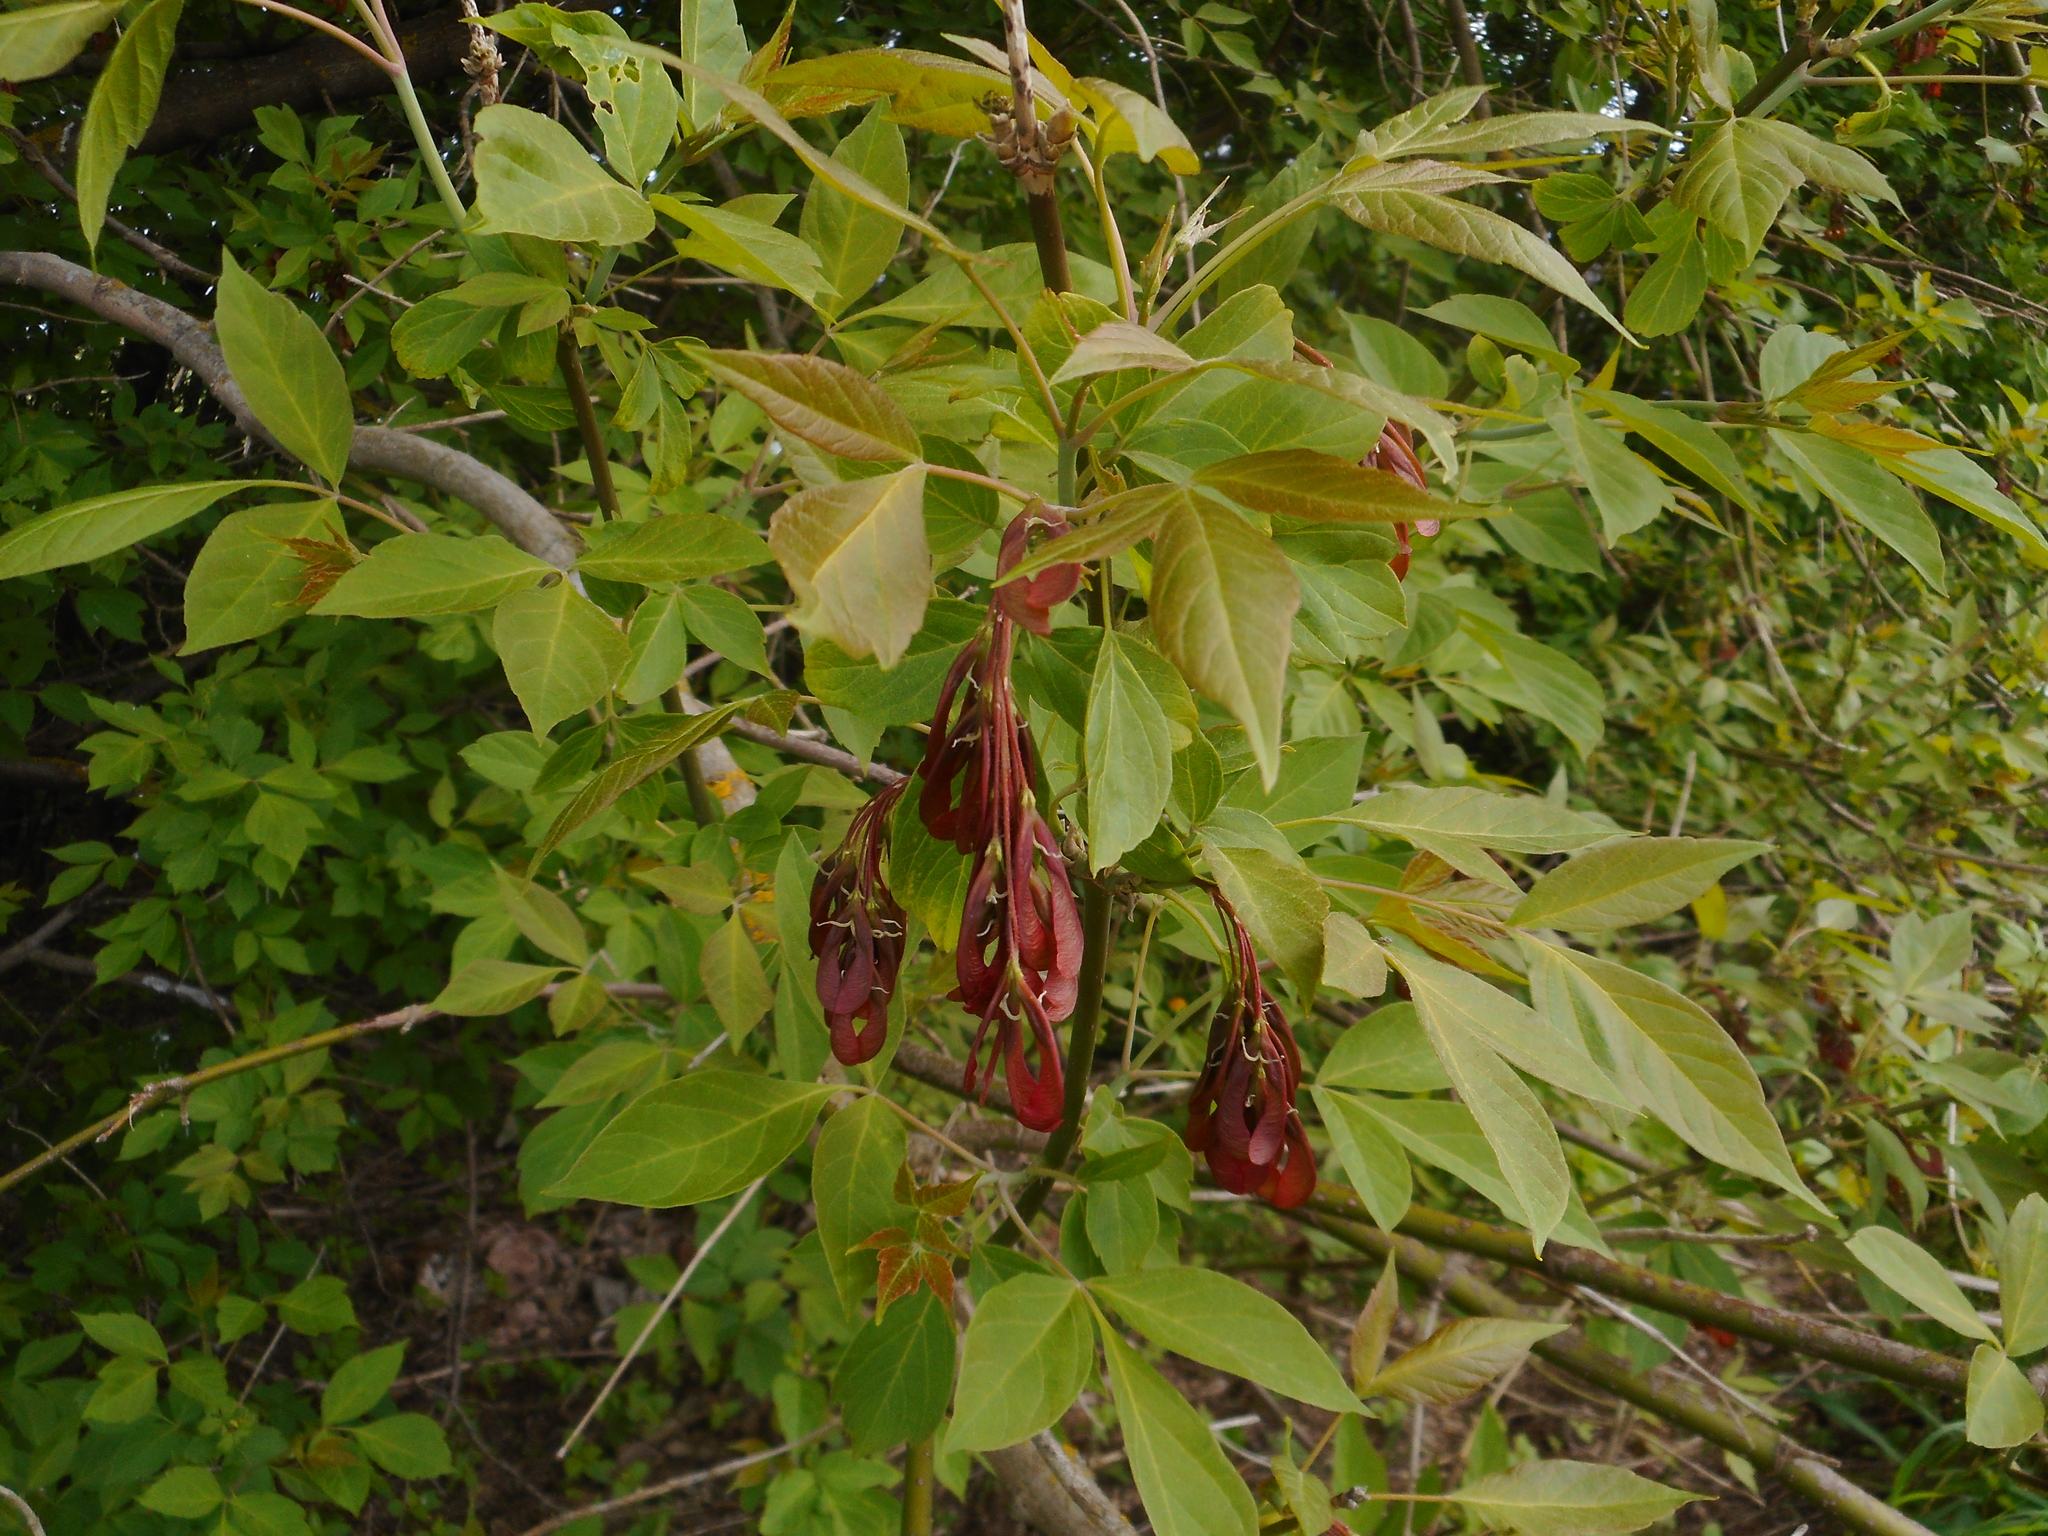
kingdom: Plantae
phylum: Tracheophyta
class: Magnoliopsida
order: Sapindales
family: Sapindaceae
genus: Acer
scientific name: Acer negundo
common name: Ashleaf maple
